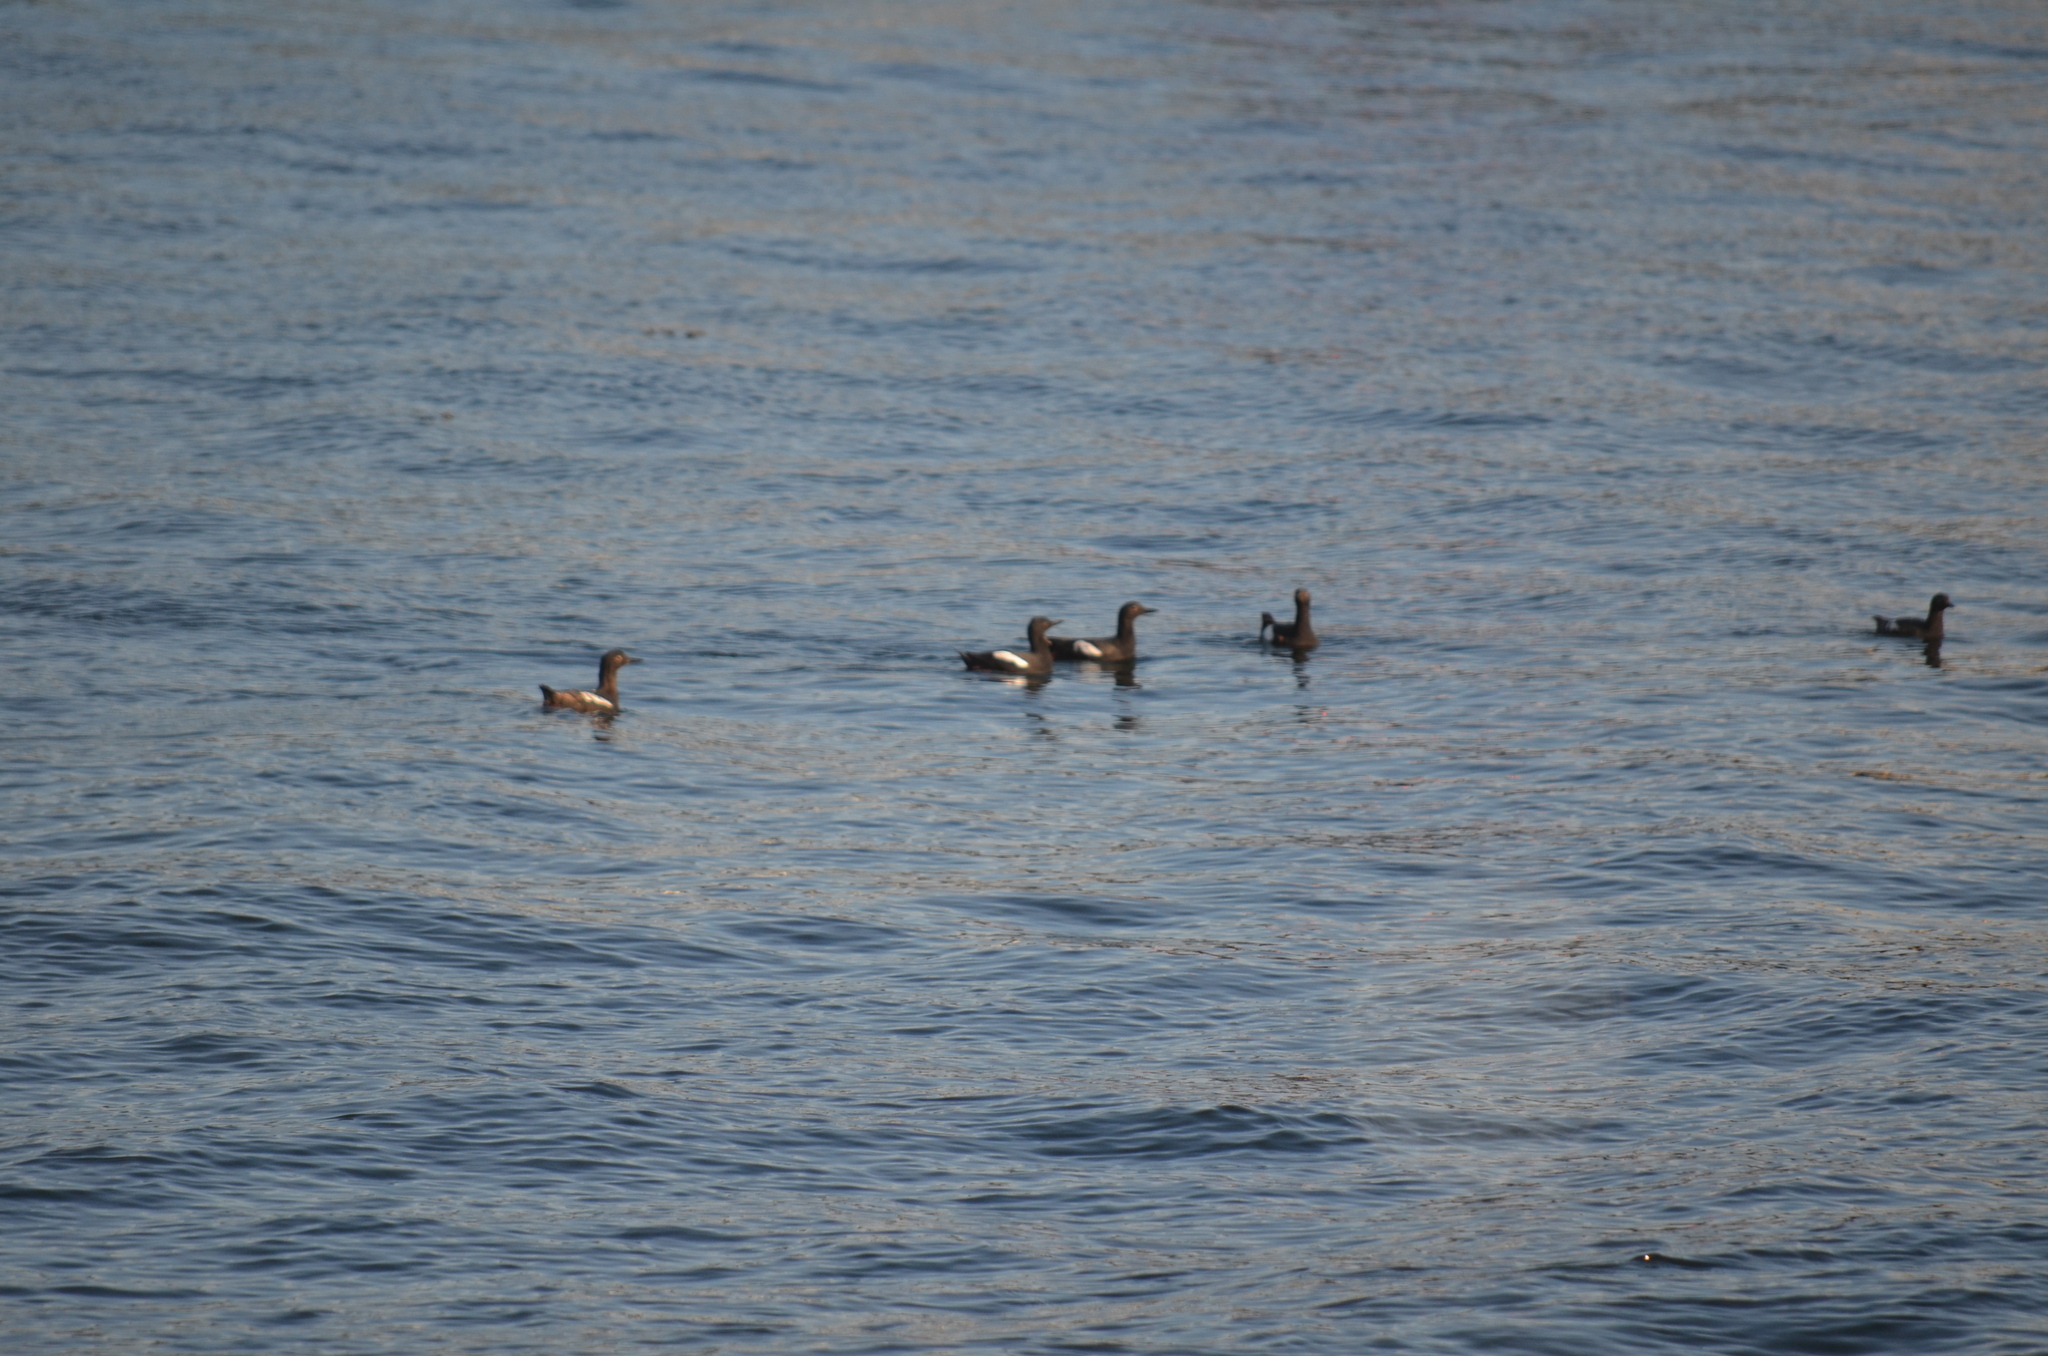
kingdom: Animalia
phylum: Chordata
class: Aves
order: Charadriiformes
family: Alcidae
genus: Cepphus
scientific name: Cepphus columba
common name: Pigeon guillemot
